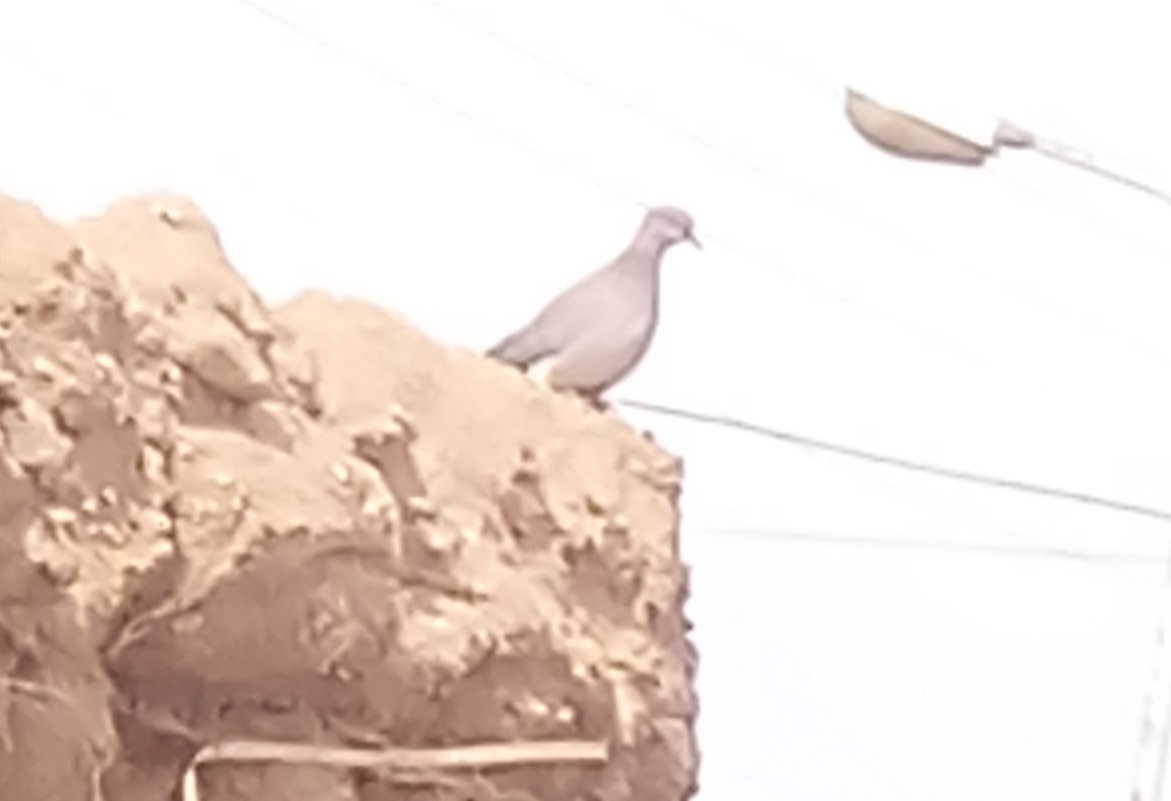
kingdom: Animalia
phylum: Chordata
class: Aves
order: Columbiformes
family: Columbidae
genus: Spilopelia
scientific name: Spilopelia senegalensis
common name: Laughing dove
